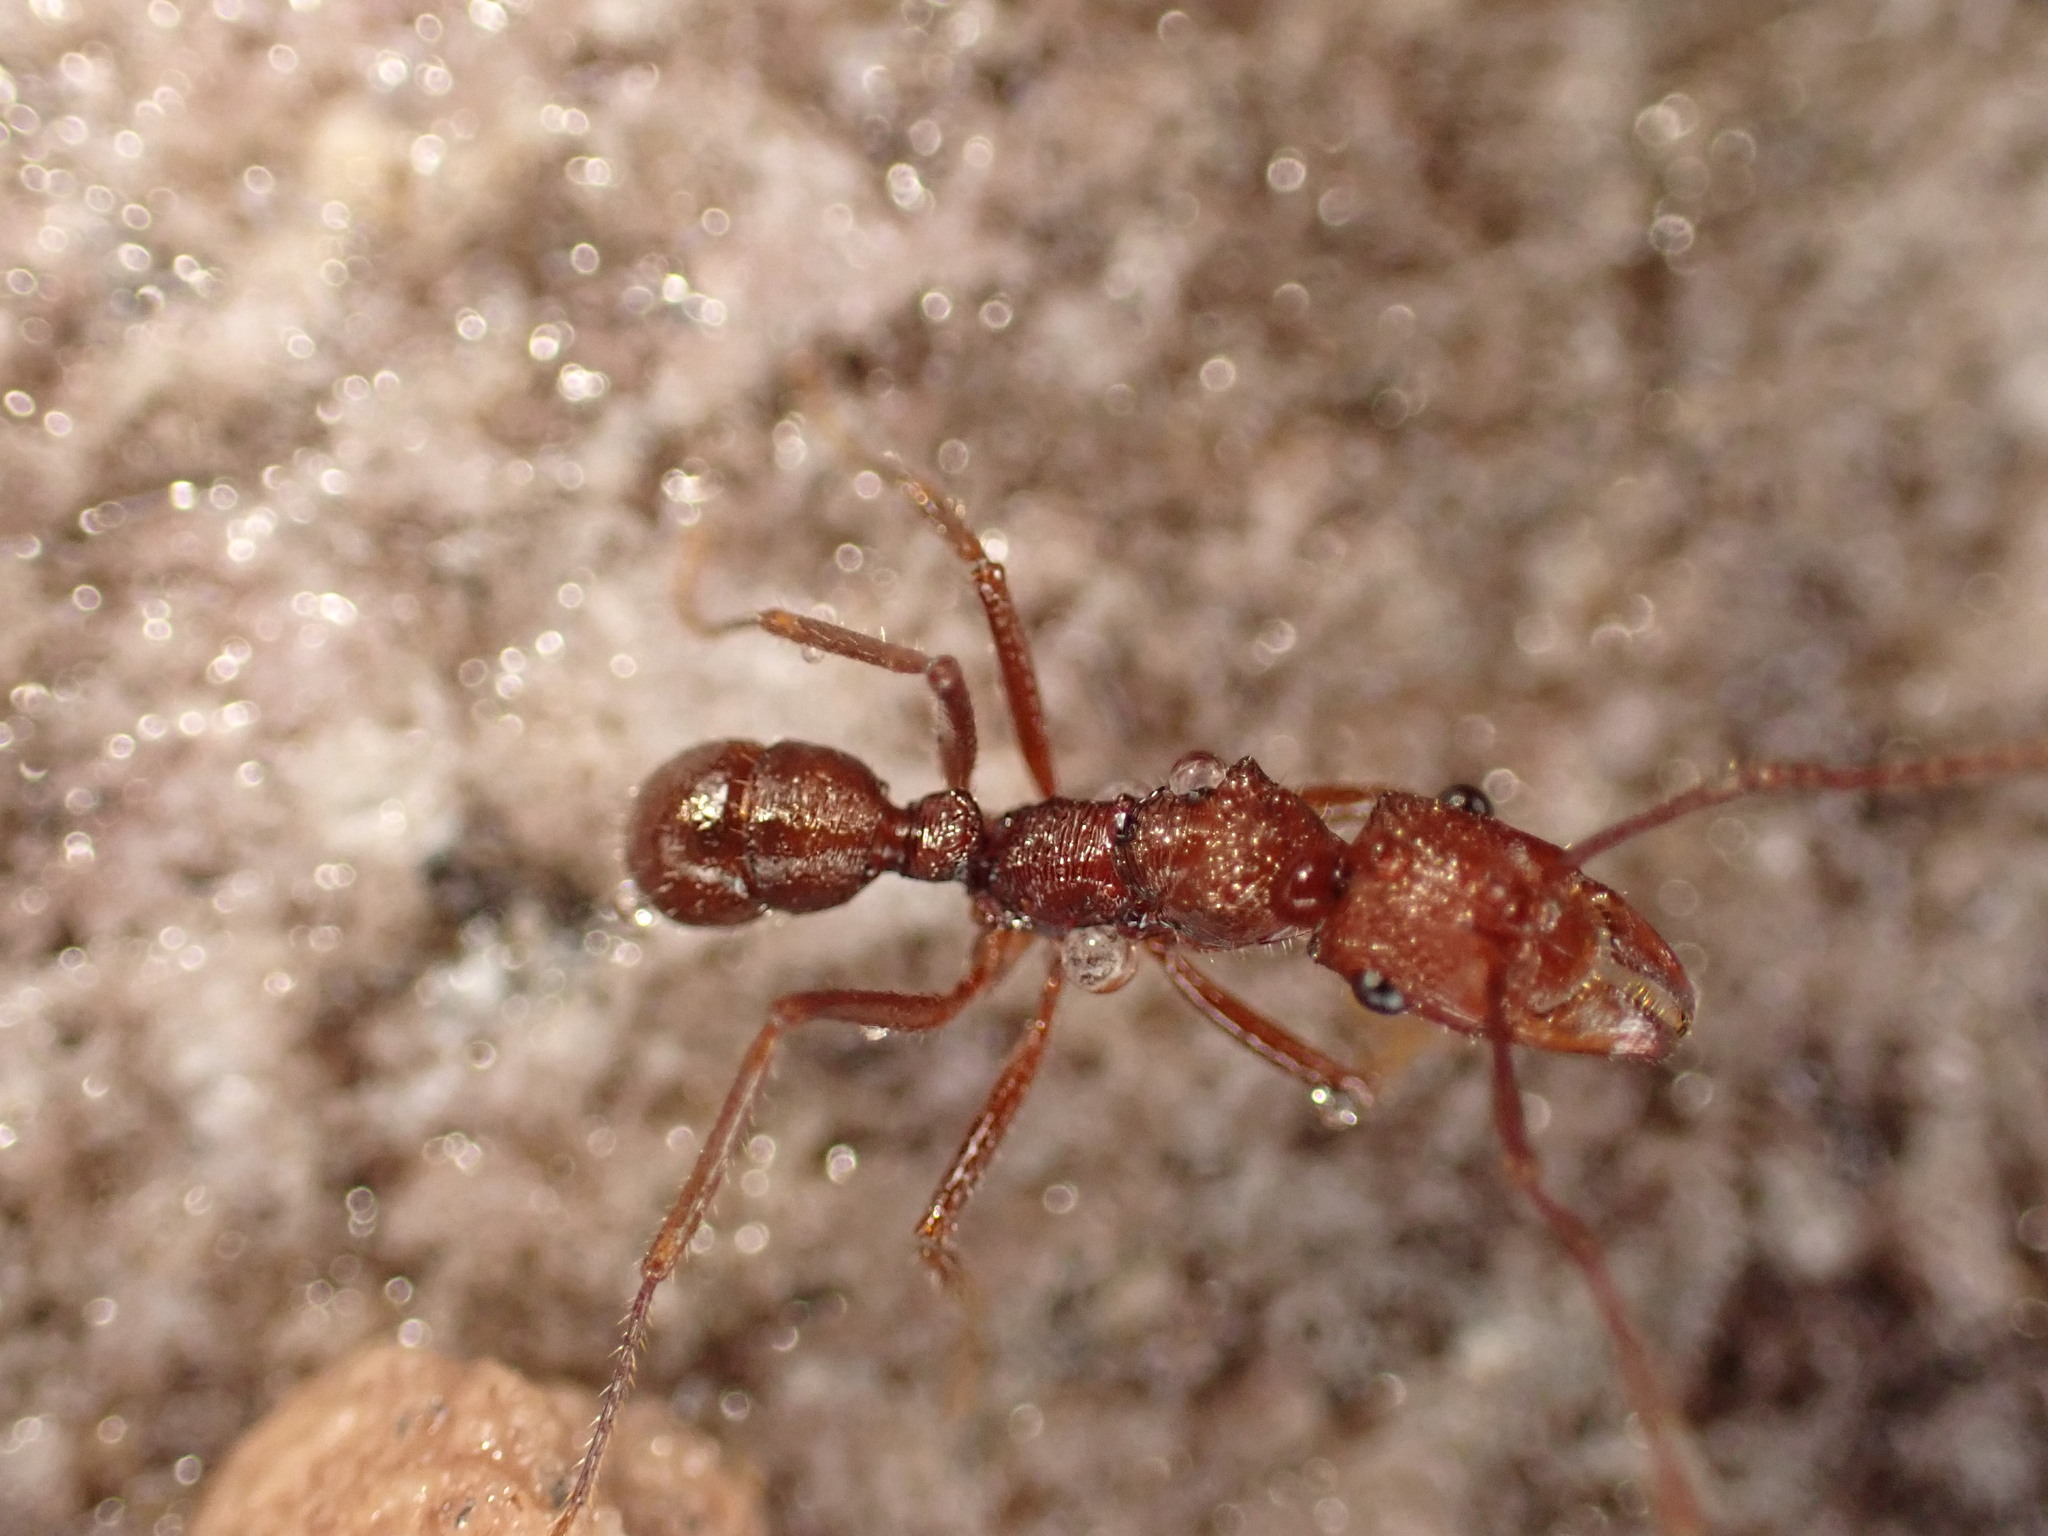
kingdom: Animalia
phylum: Arthropoda
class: Insecta
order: Hymenoptera
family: Formicidae
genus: Ectatomma
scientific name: Ectatomma tuberculatum
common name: Ant
